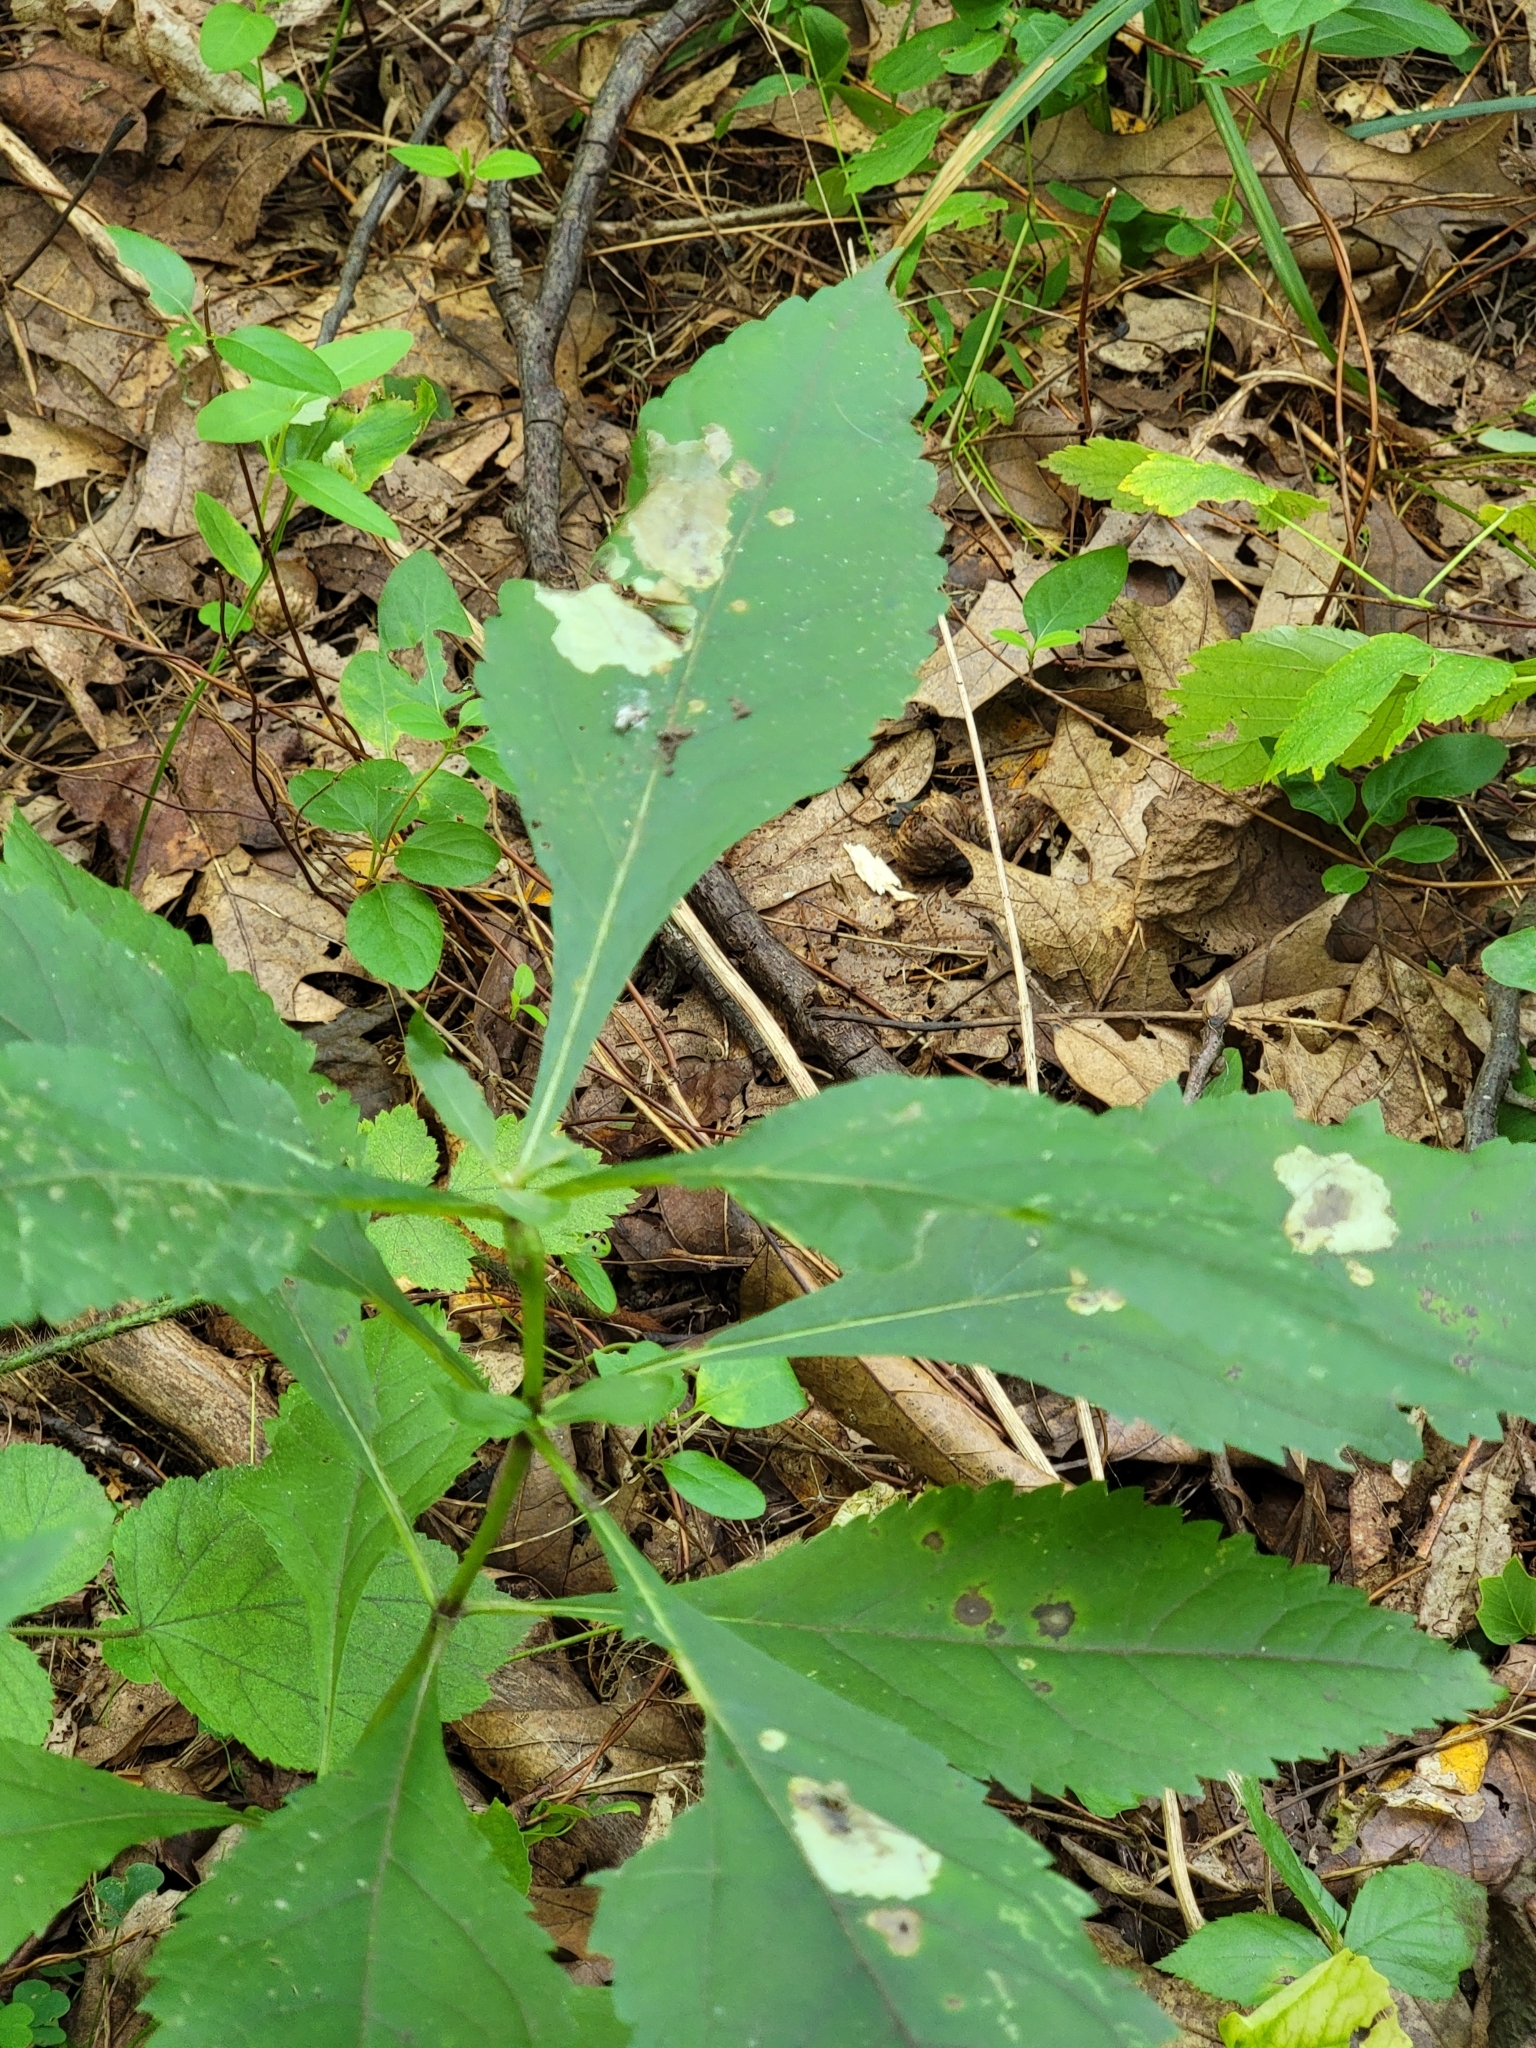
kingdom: Plantae
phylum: Tracheophyta
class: Magnoliopsida
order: Asterales
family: Asteraceae
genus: Eutrochium
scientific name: Eutrochium purpureum
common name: Gravelroot
